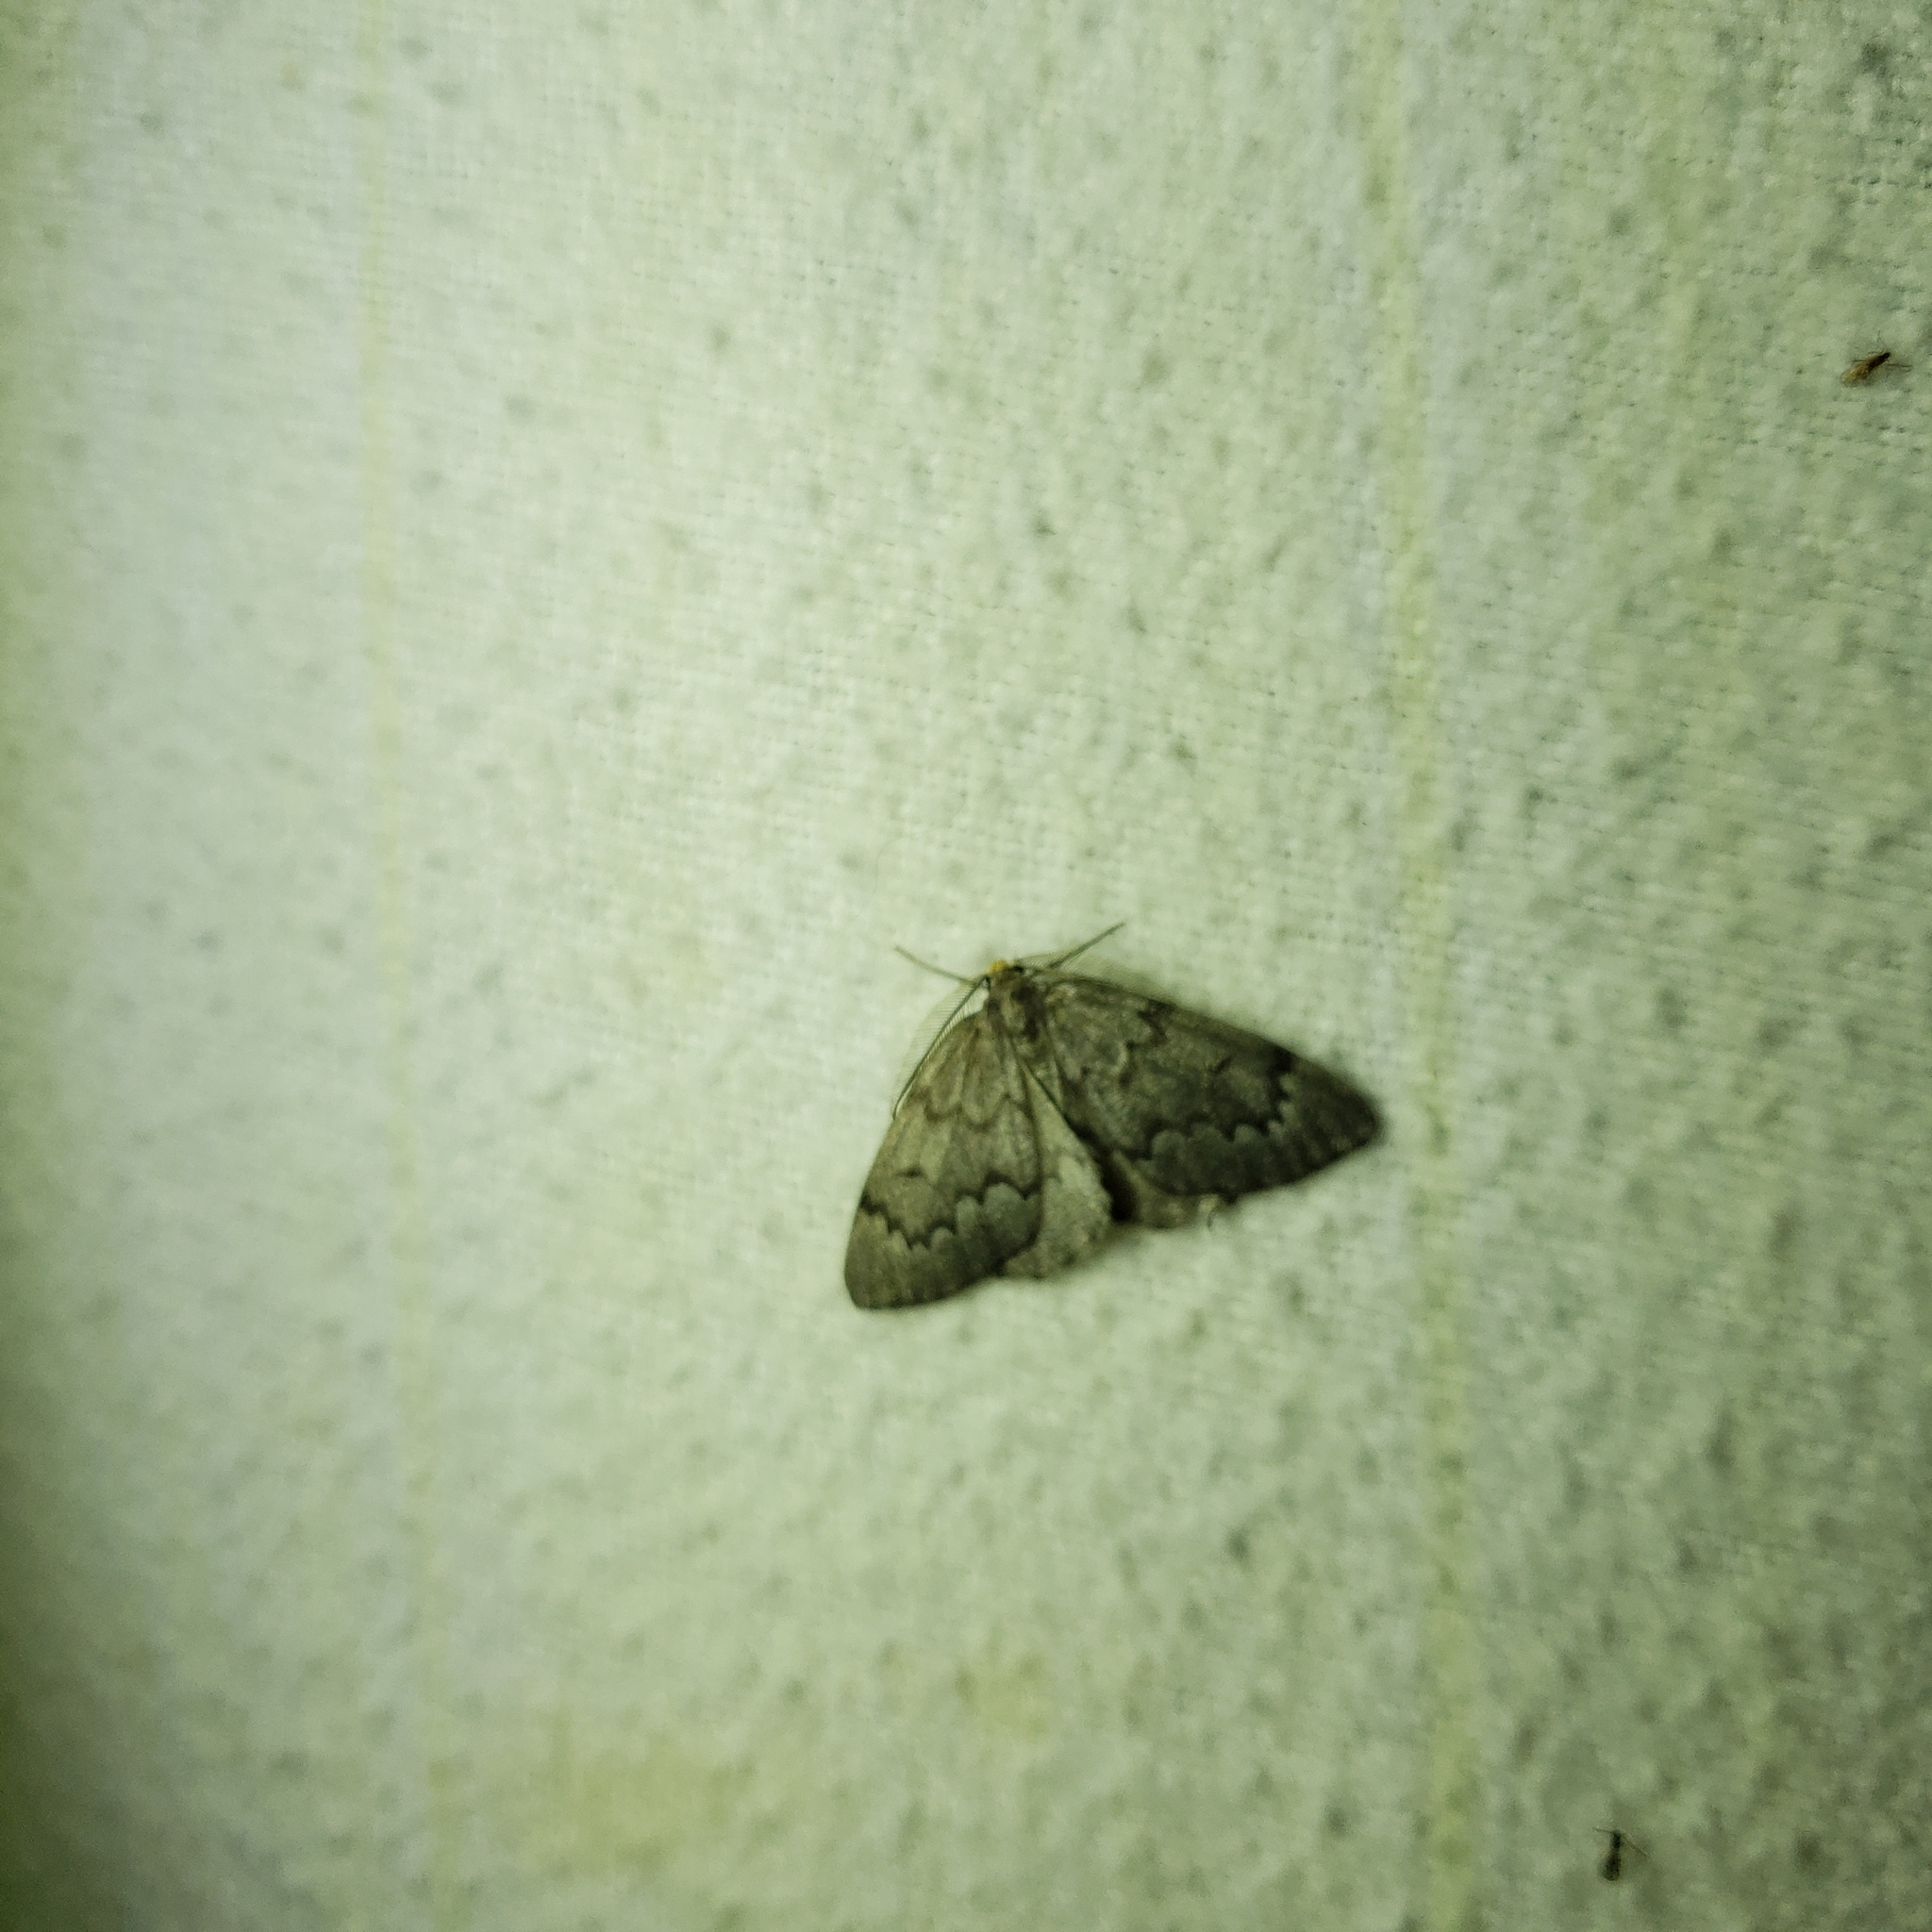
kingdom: Animalia
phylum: Arthropoda
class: Insecta
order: Lepidoptera
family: Geometridae
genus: Nepytia
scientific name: Nepytia canosaria
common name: False hemlock looper
